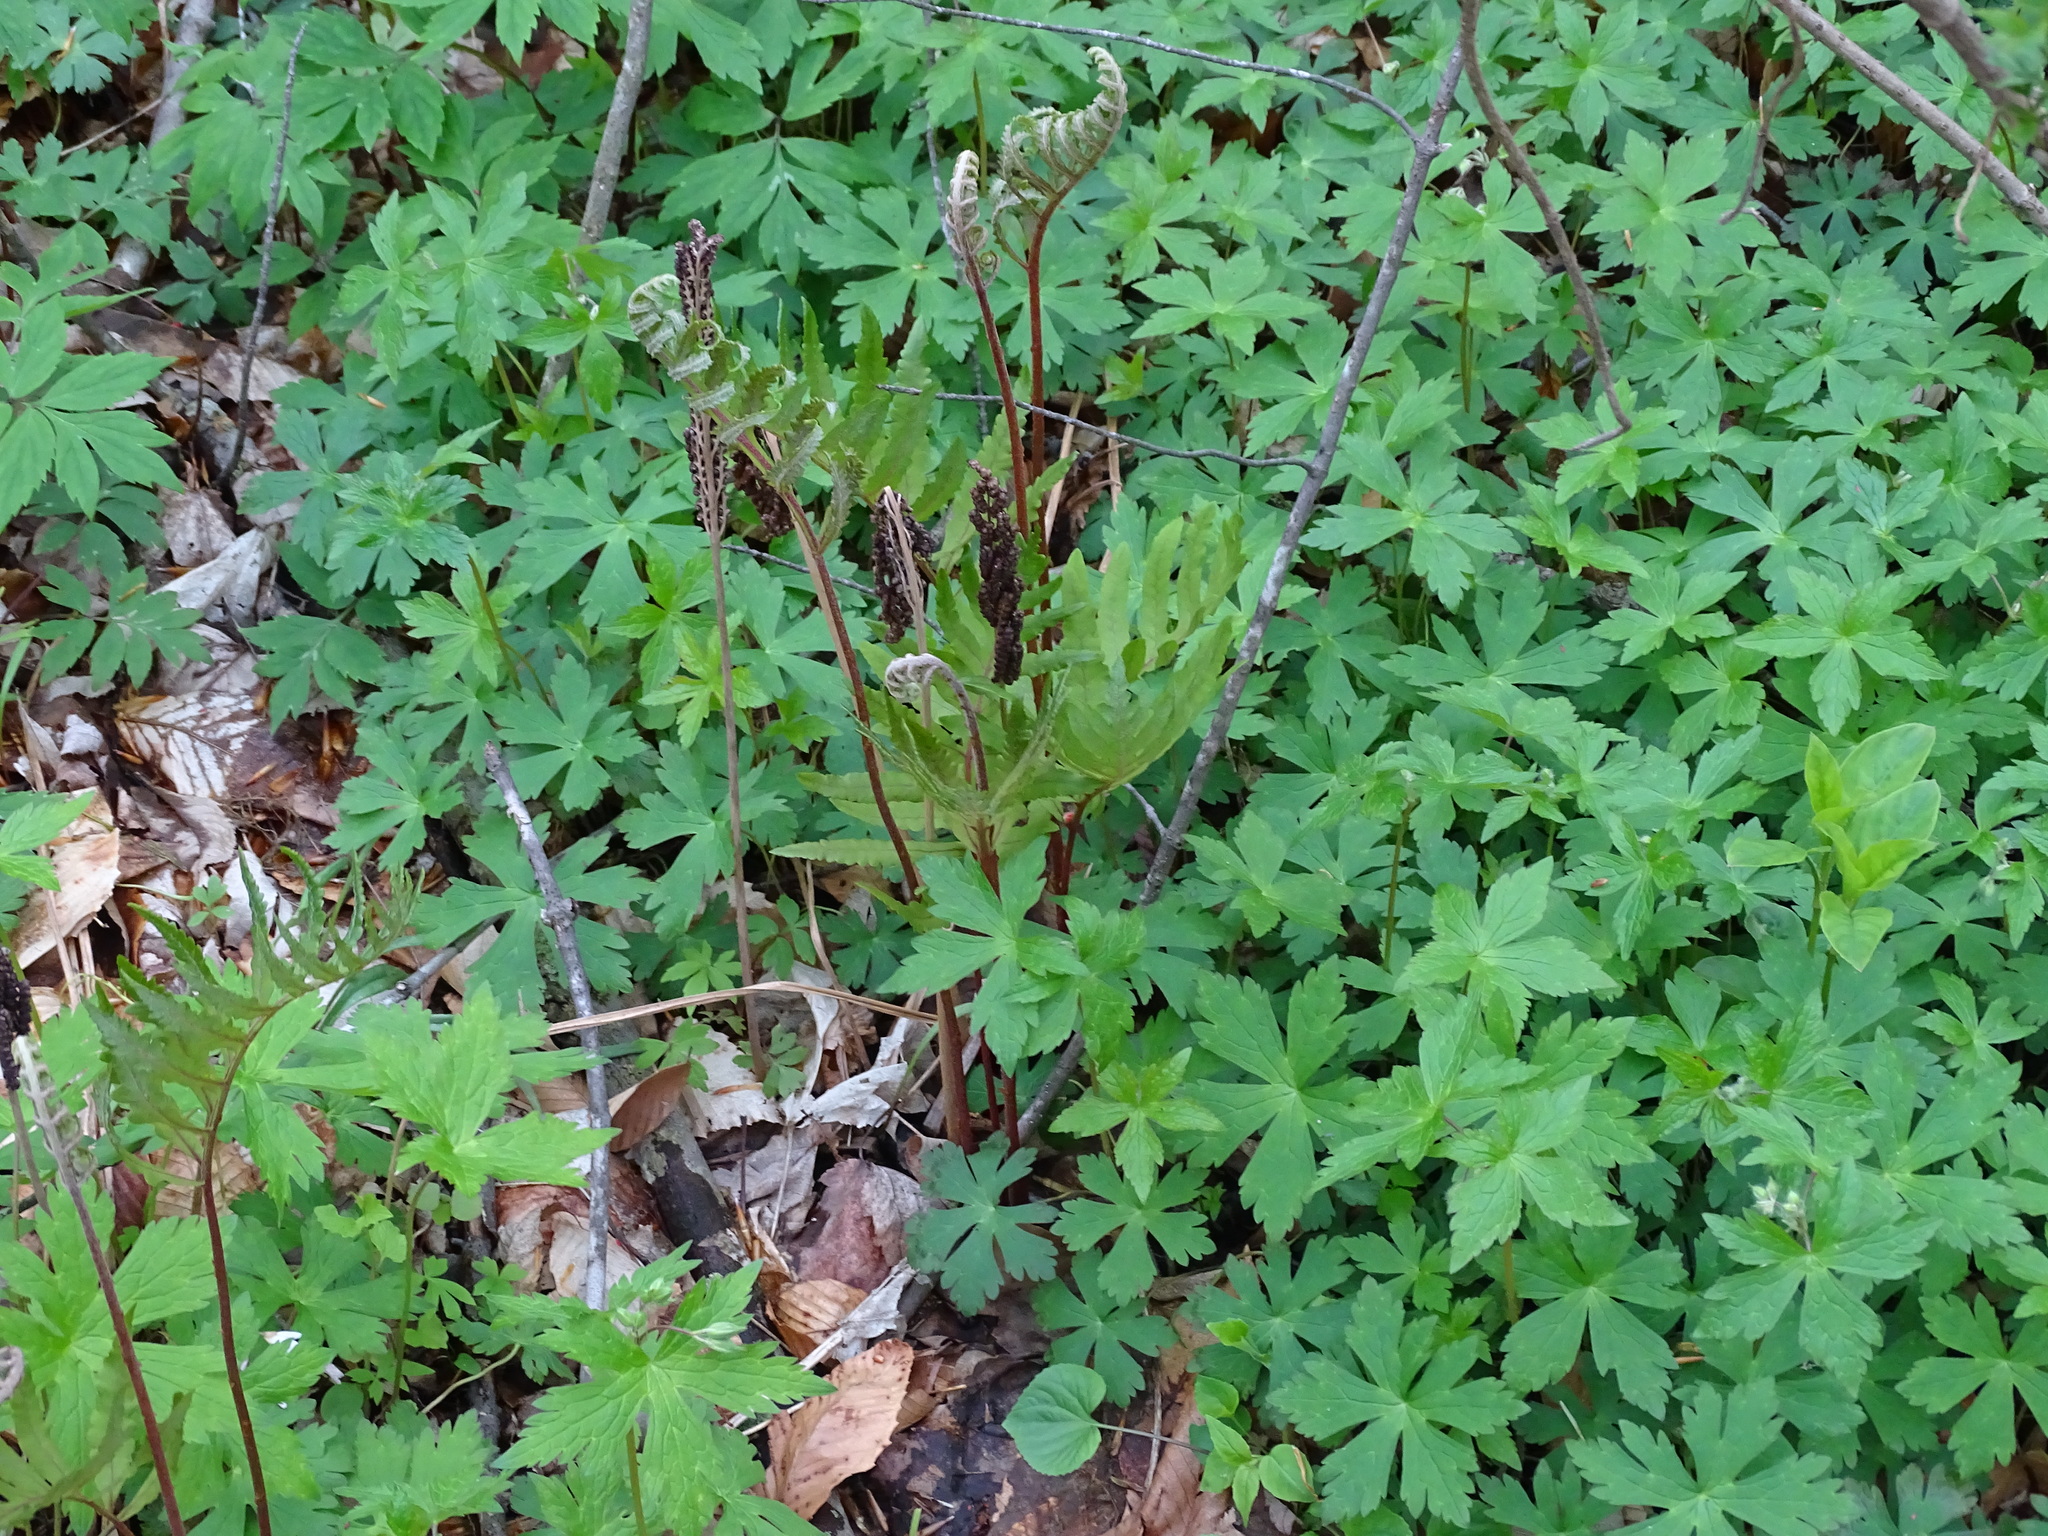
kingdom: Plantae
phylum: Tracheophyta
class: Polypodiopsida
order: Polypodiales
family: Onocleaceae
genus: Onoclea
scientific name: Onoclea sensibilis
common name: Sensitive fern
